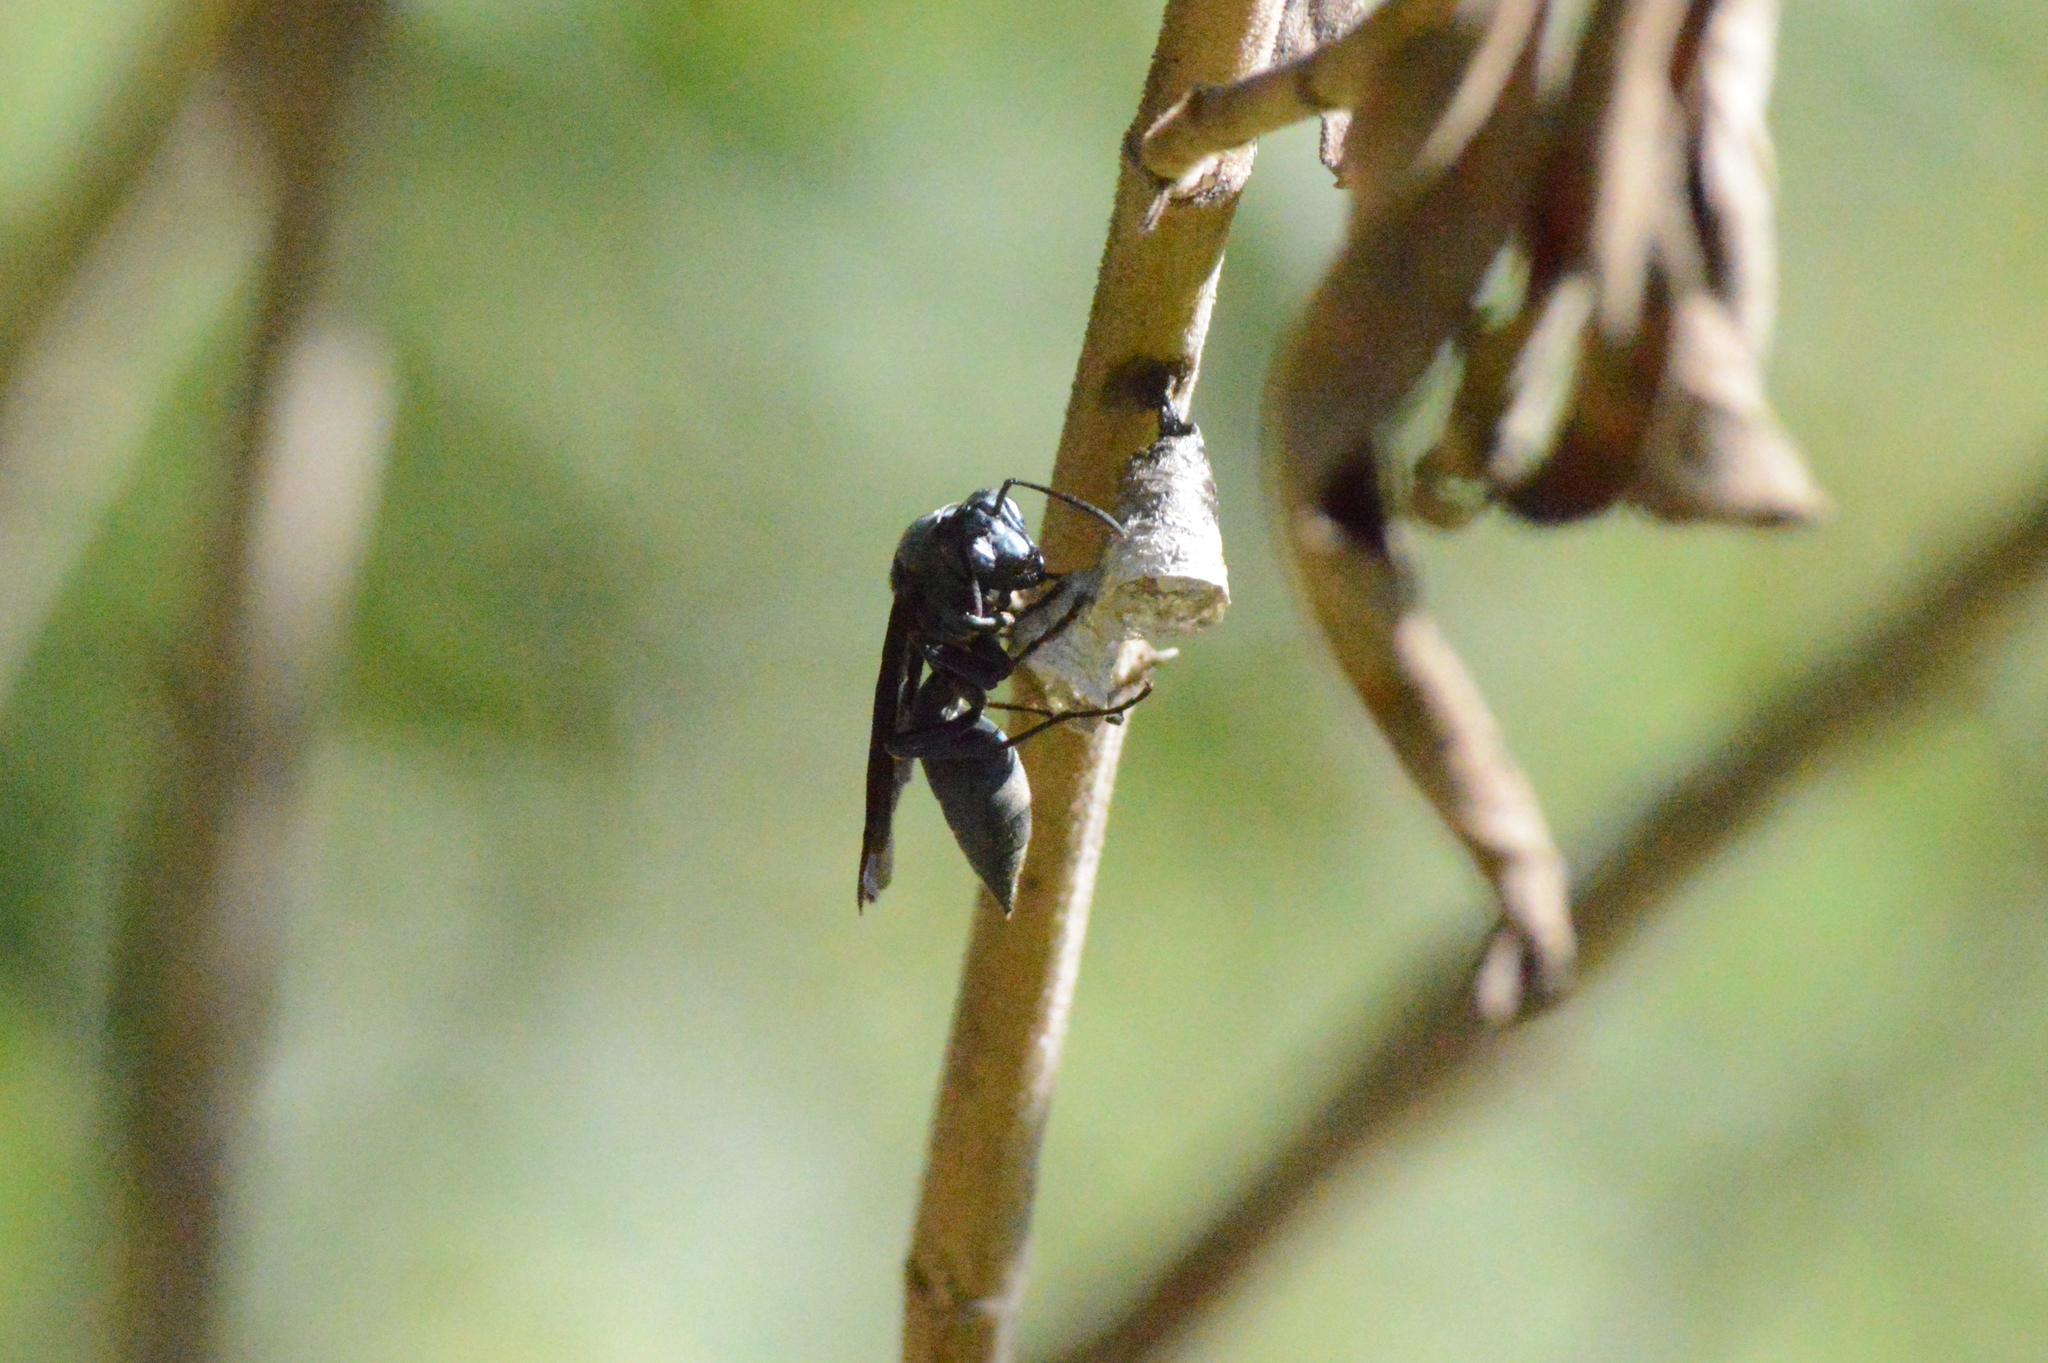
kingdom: Animalia
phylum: Arthropoda
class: Insecta
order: Hymenoptera
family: Eumenidae
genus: Polistes
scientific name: Polistes goeldii
